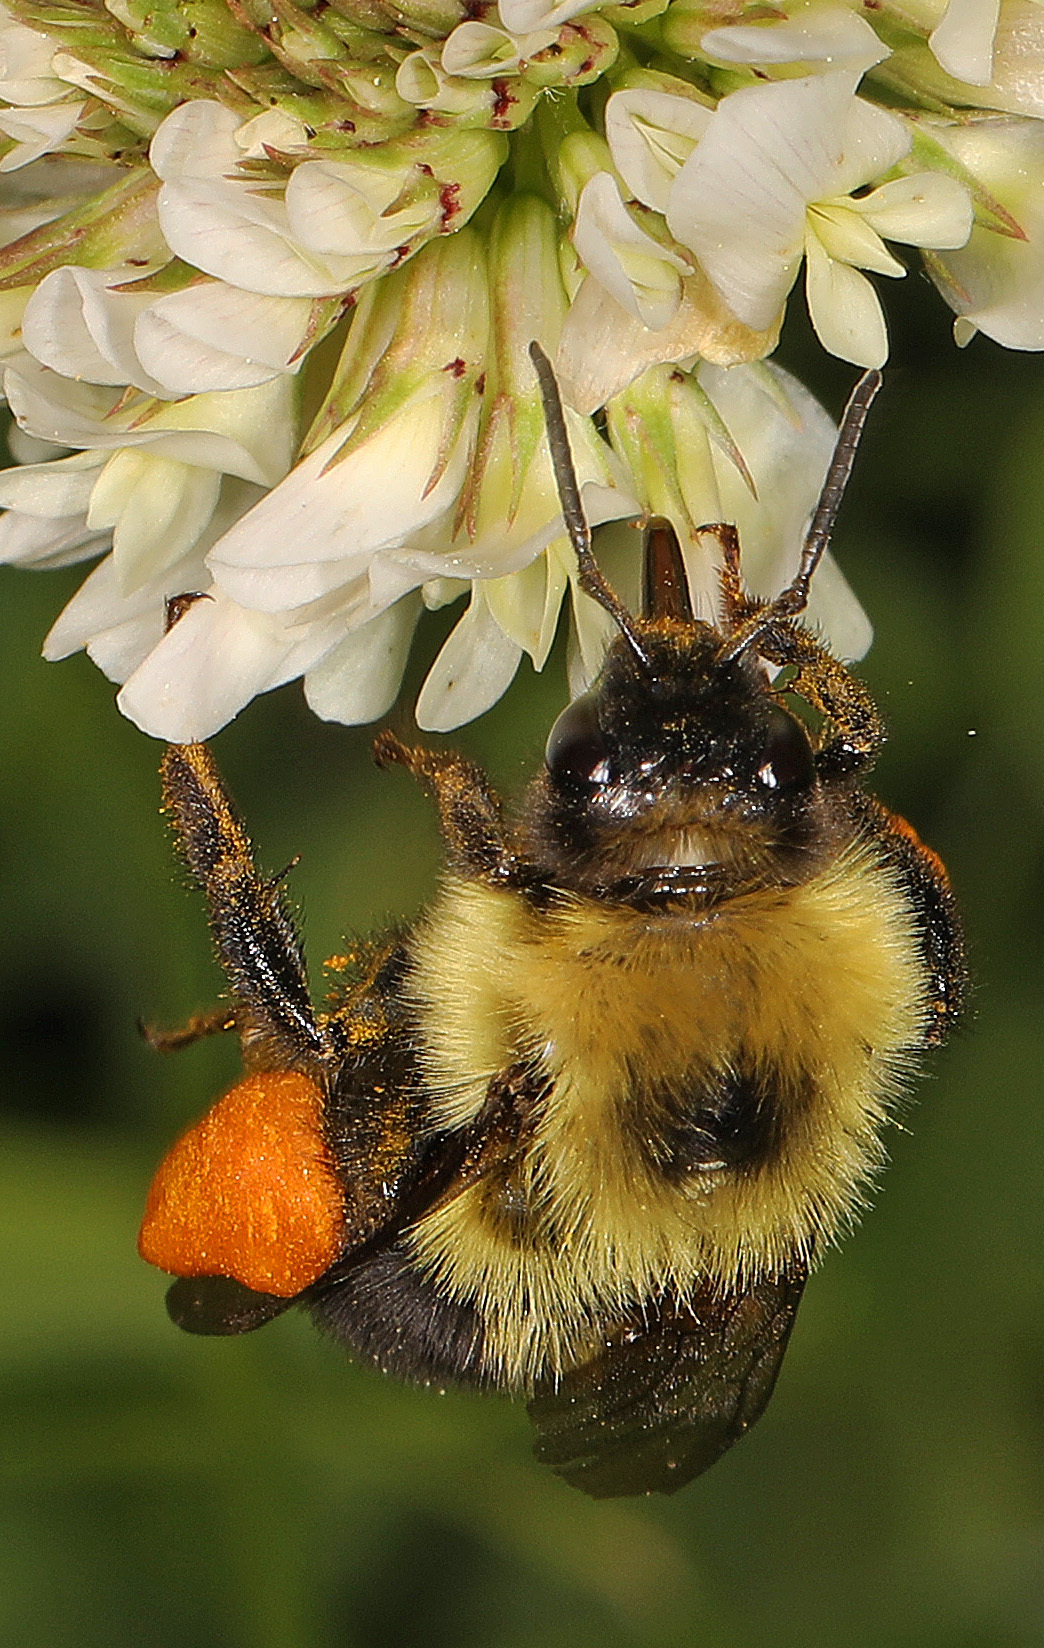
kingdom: Animalia
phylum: Arthropoda
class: Insecta
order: Hymenoptera
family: Apidae
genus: Bombus
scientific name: Bombus bimaculatus
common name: Two-spotted bumble bee
